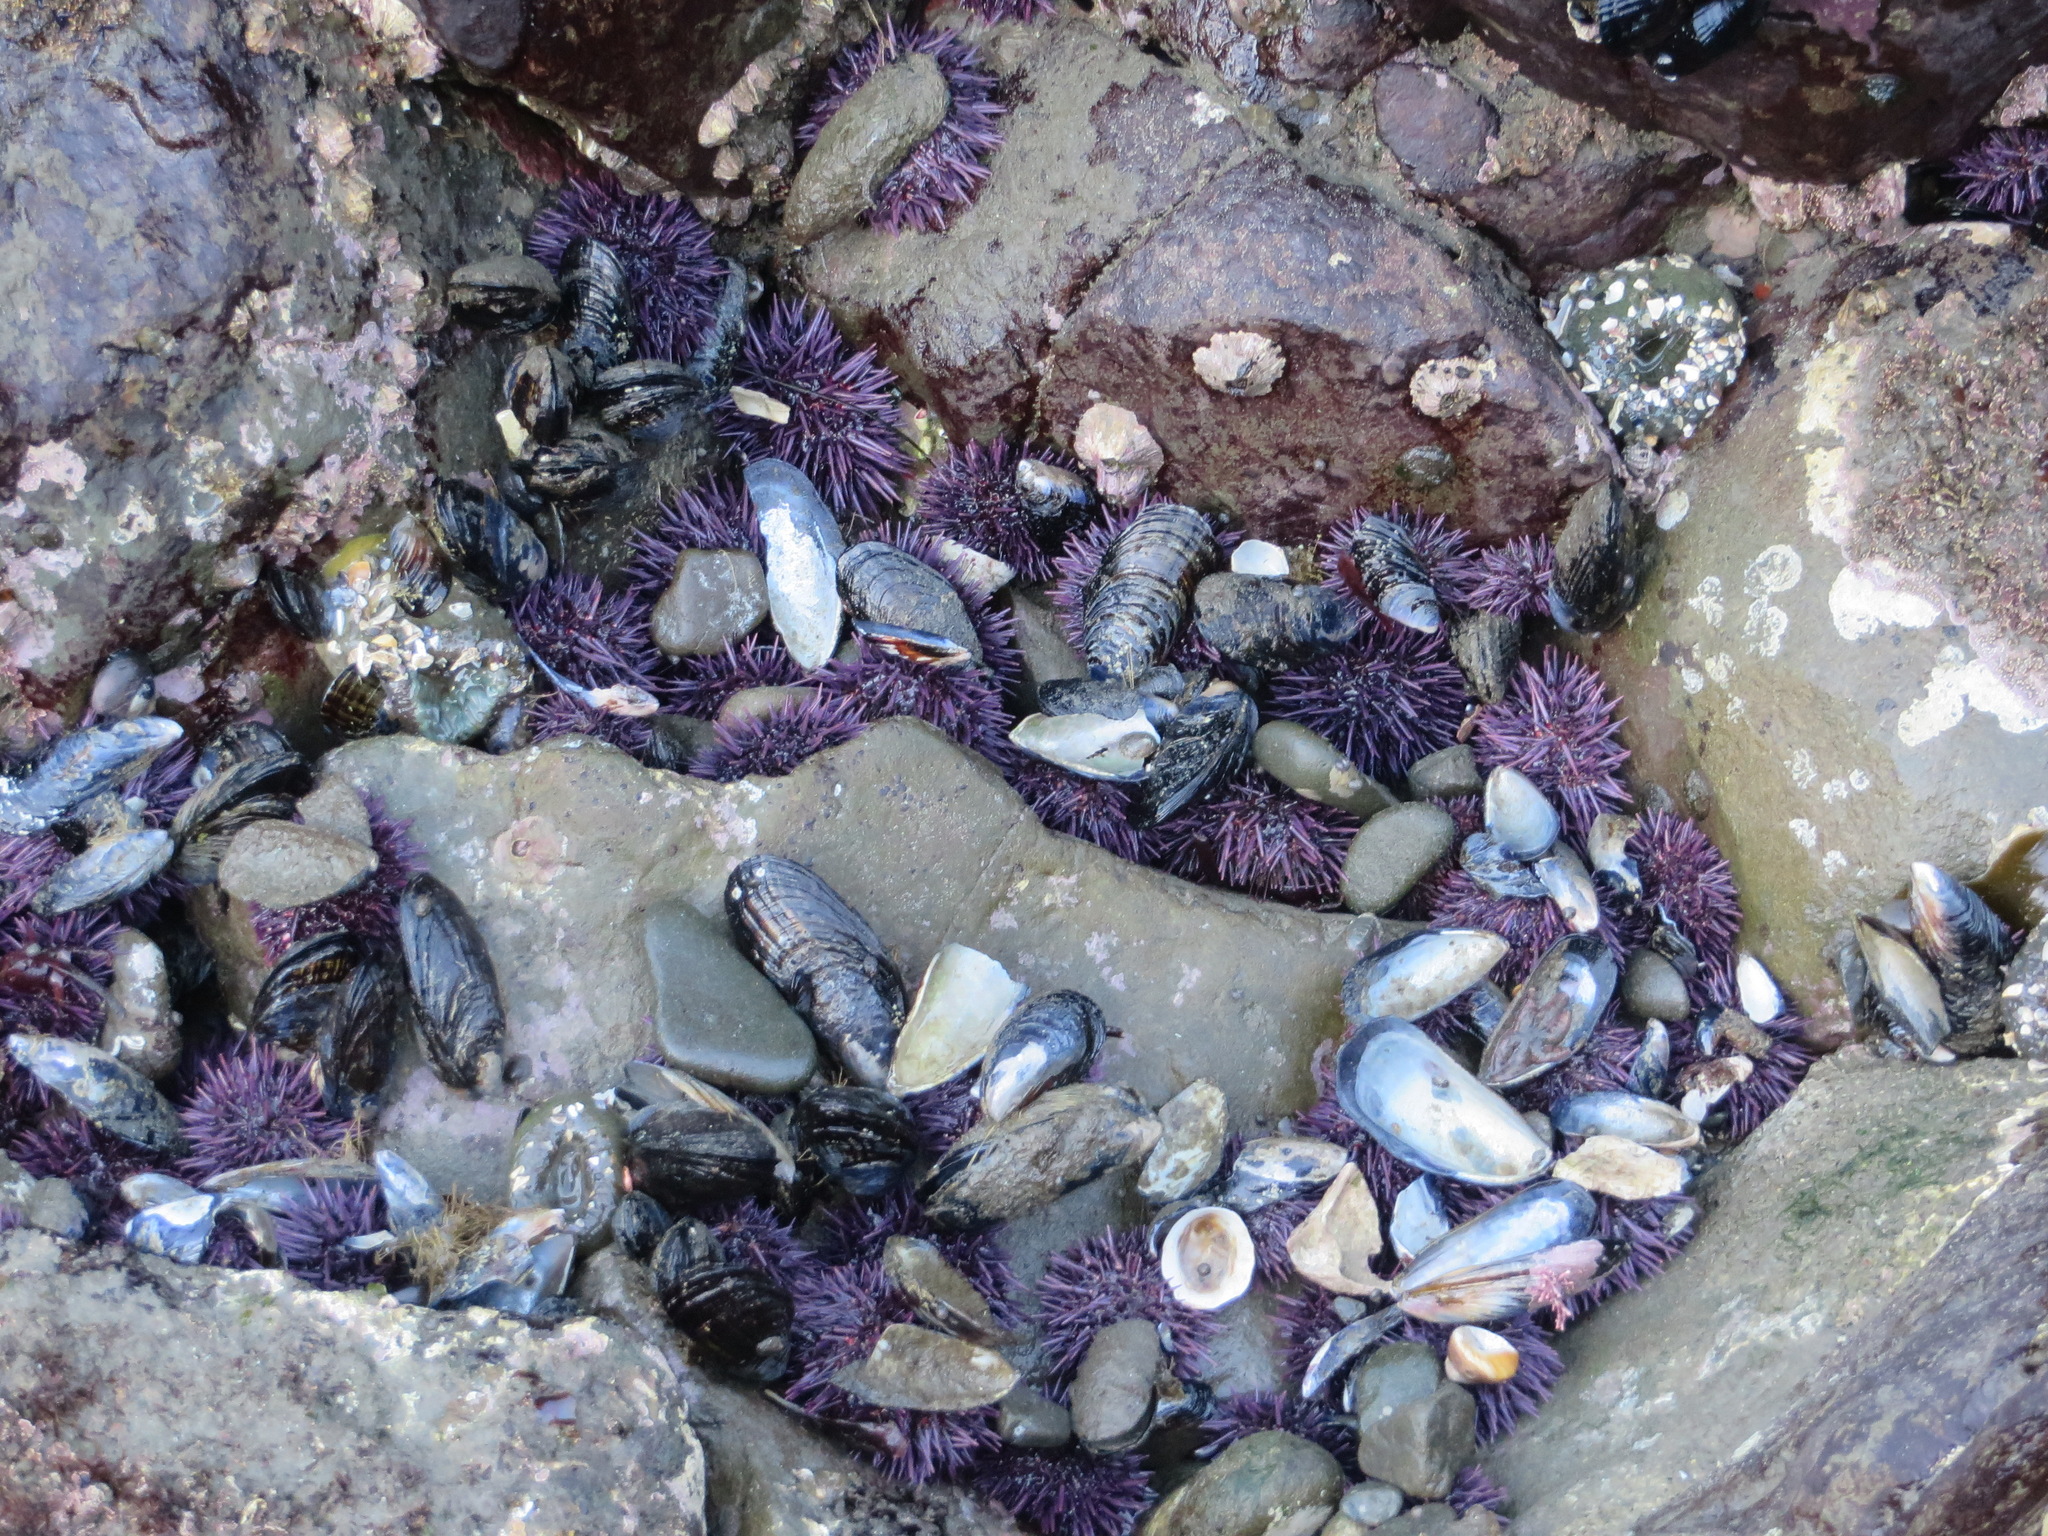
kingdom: Animalia
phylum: Echinodermata
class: Echinoidea
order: Camarodonta
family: Strongylocentrotidae
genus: Strongylocentrotus
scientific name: Strongylocentrotus purpuratus
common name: Purple sea urchin
